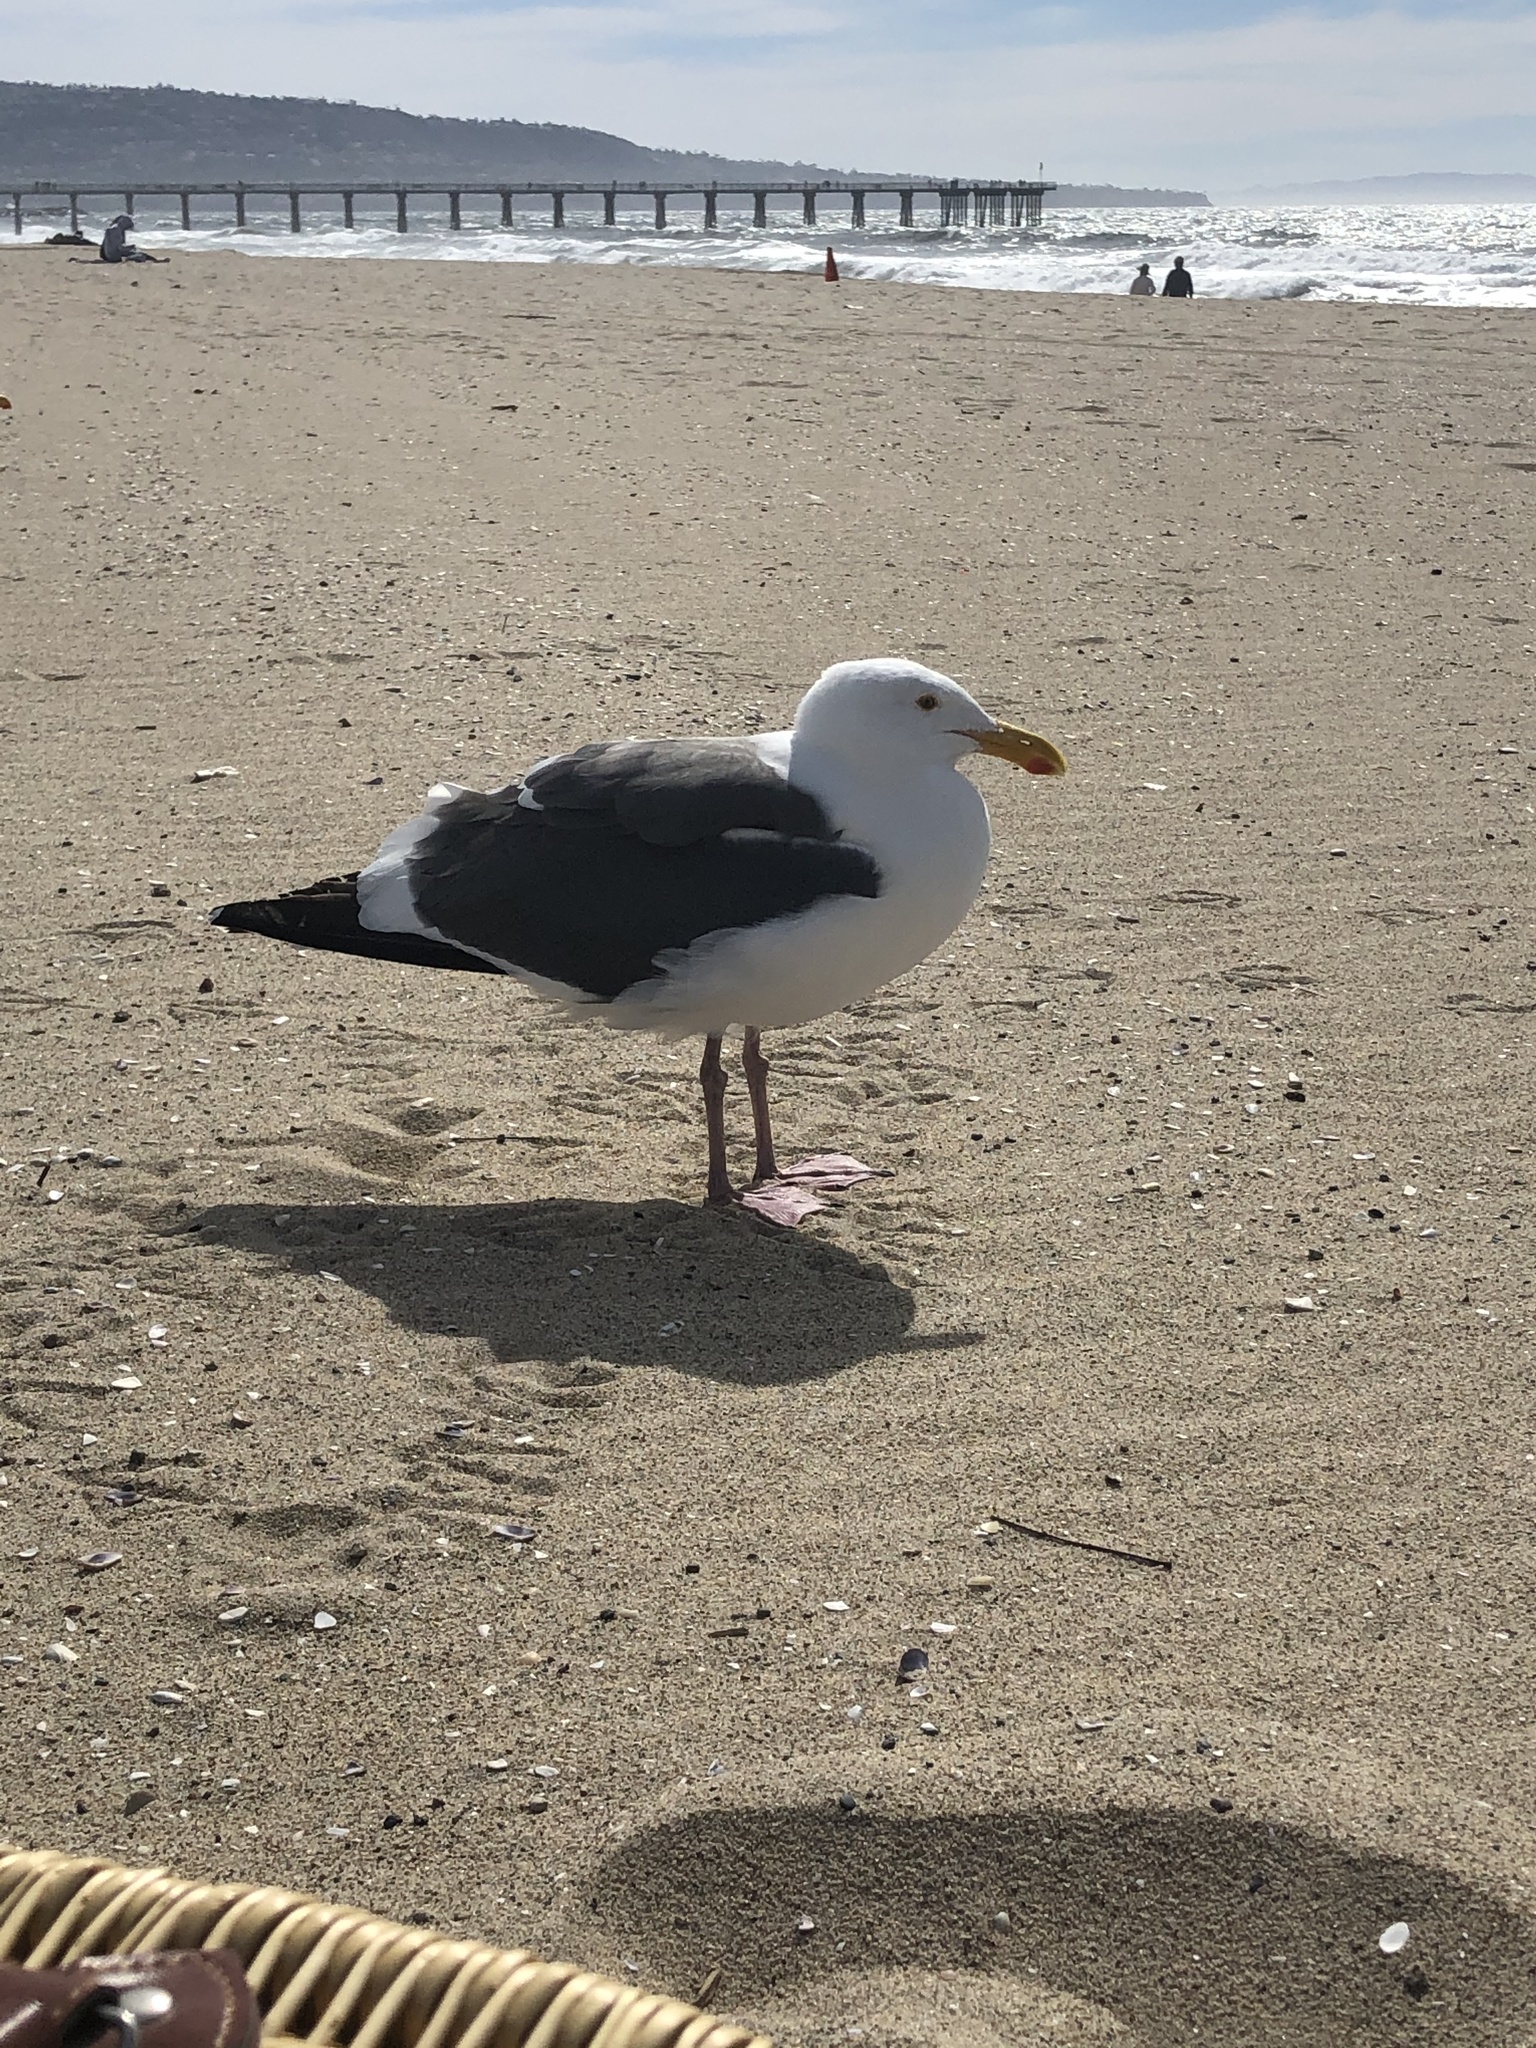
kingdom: Animalia
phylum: Chordata
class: Aves
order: Charadriiformes
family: Laridae
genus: Larus
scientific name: Larus occidentalis
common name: Western gull
